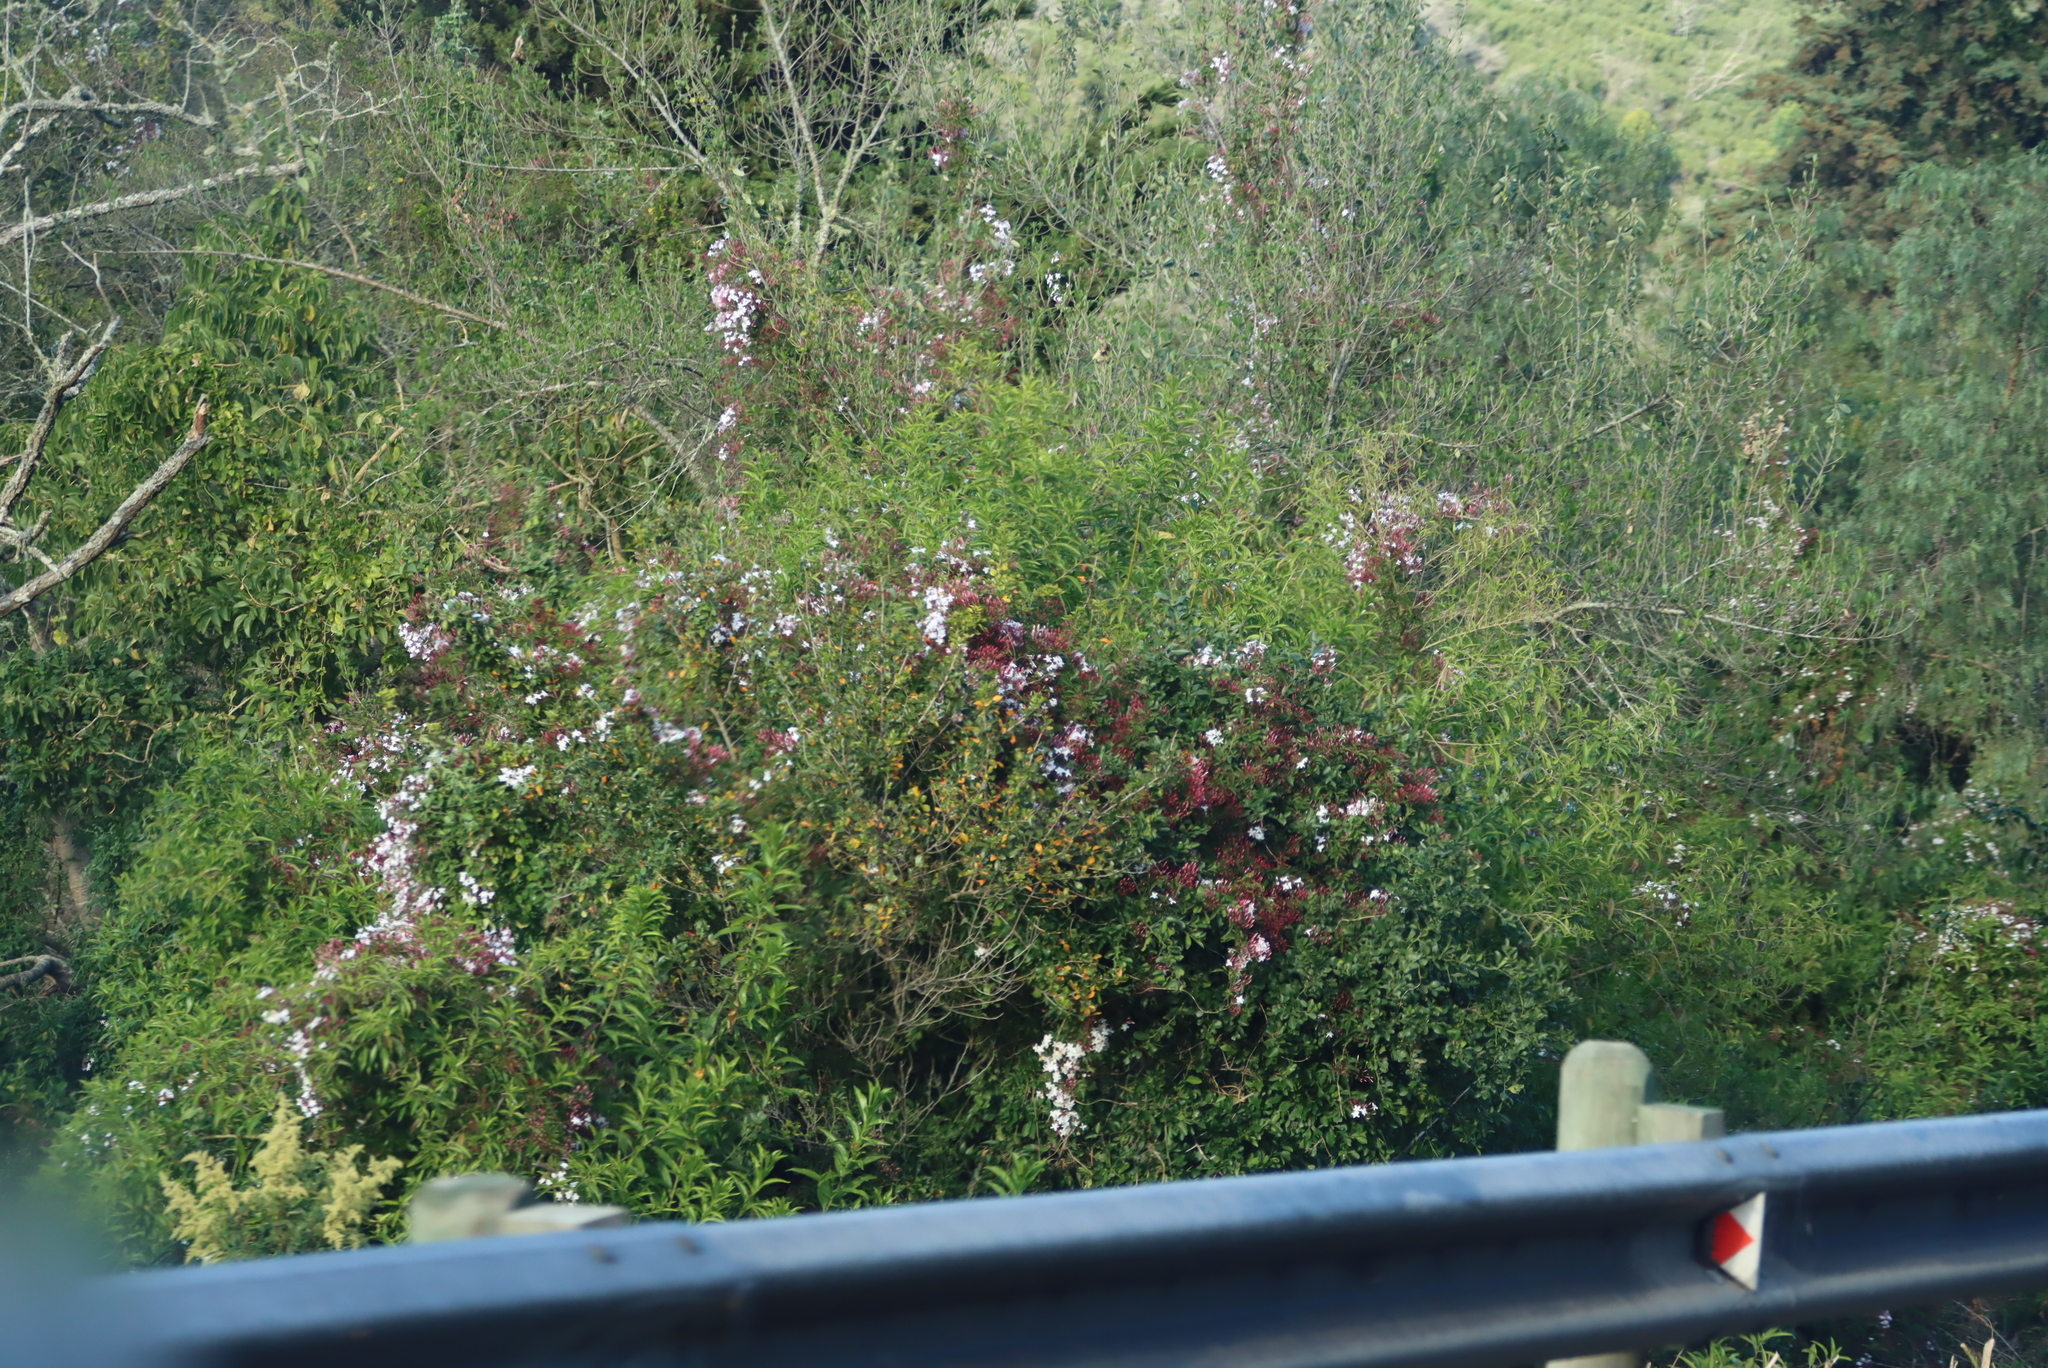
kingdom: Plantae
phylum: Tracheophyta
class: Magnoliopsida
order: Lamiales
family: Oleaceae
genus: Jasminum
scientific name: Jasminum polyanthum
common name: Pink jasmine
